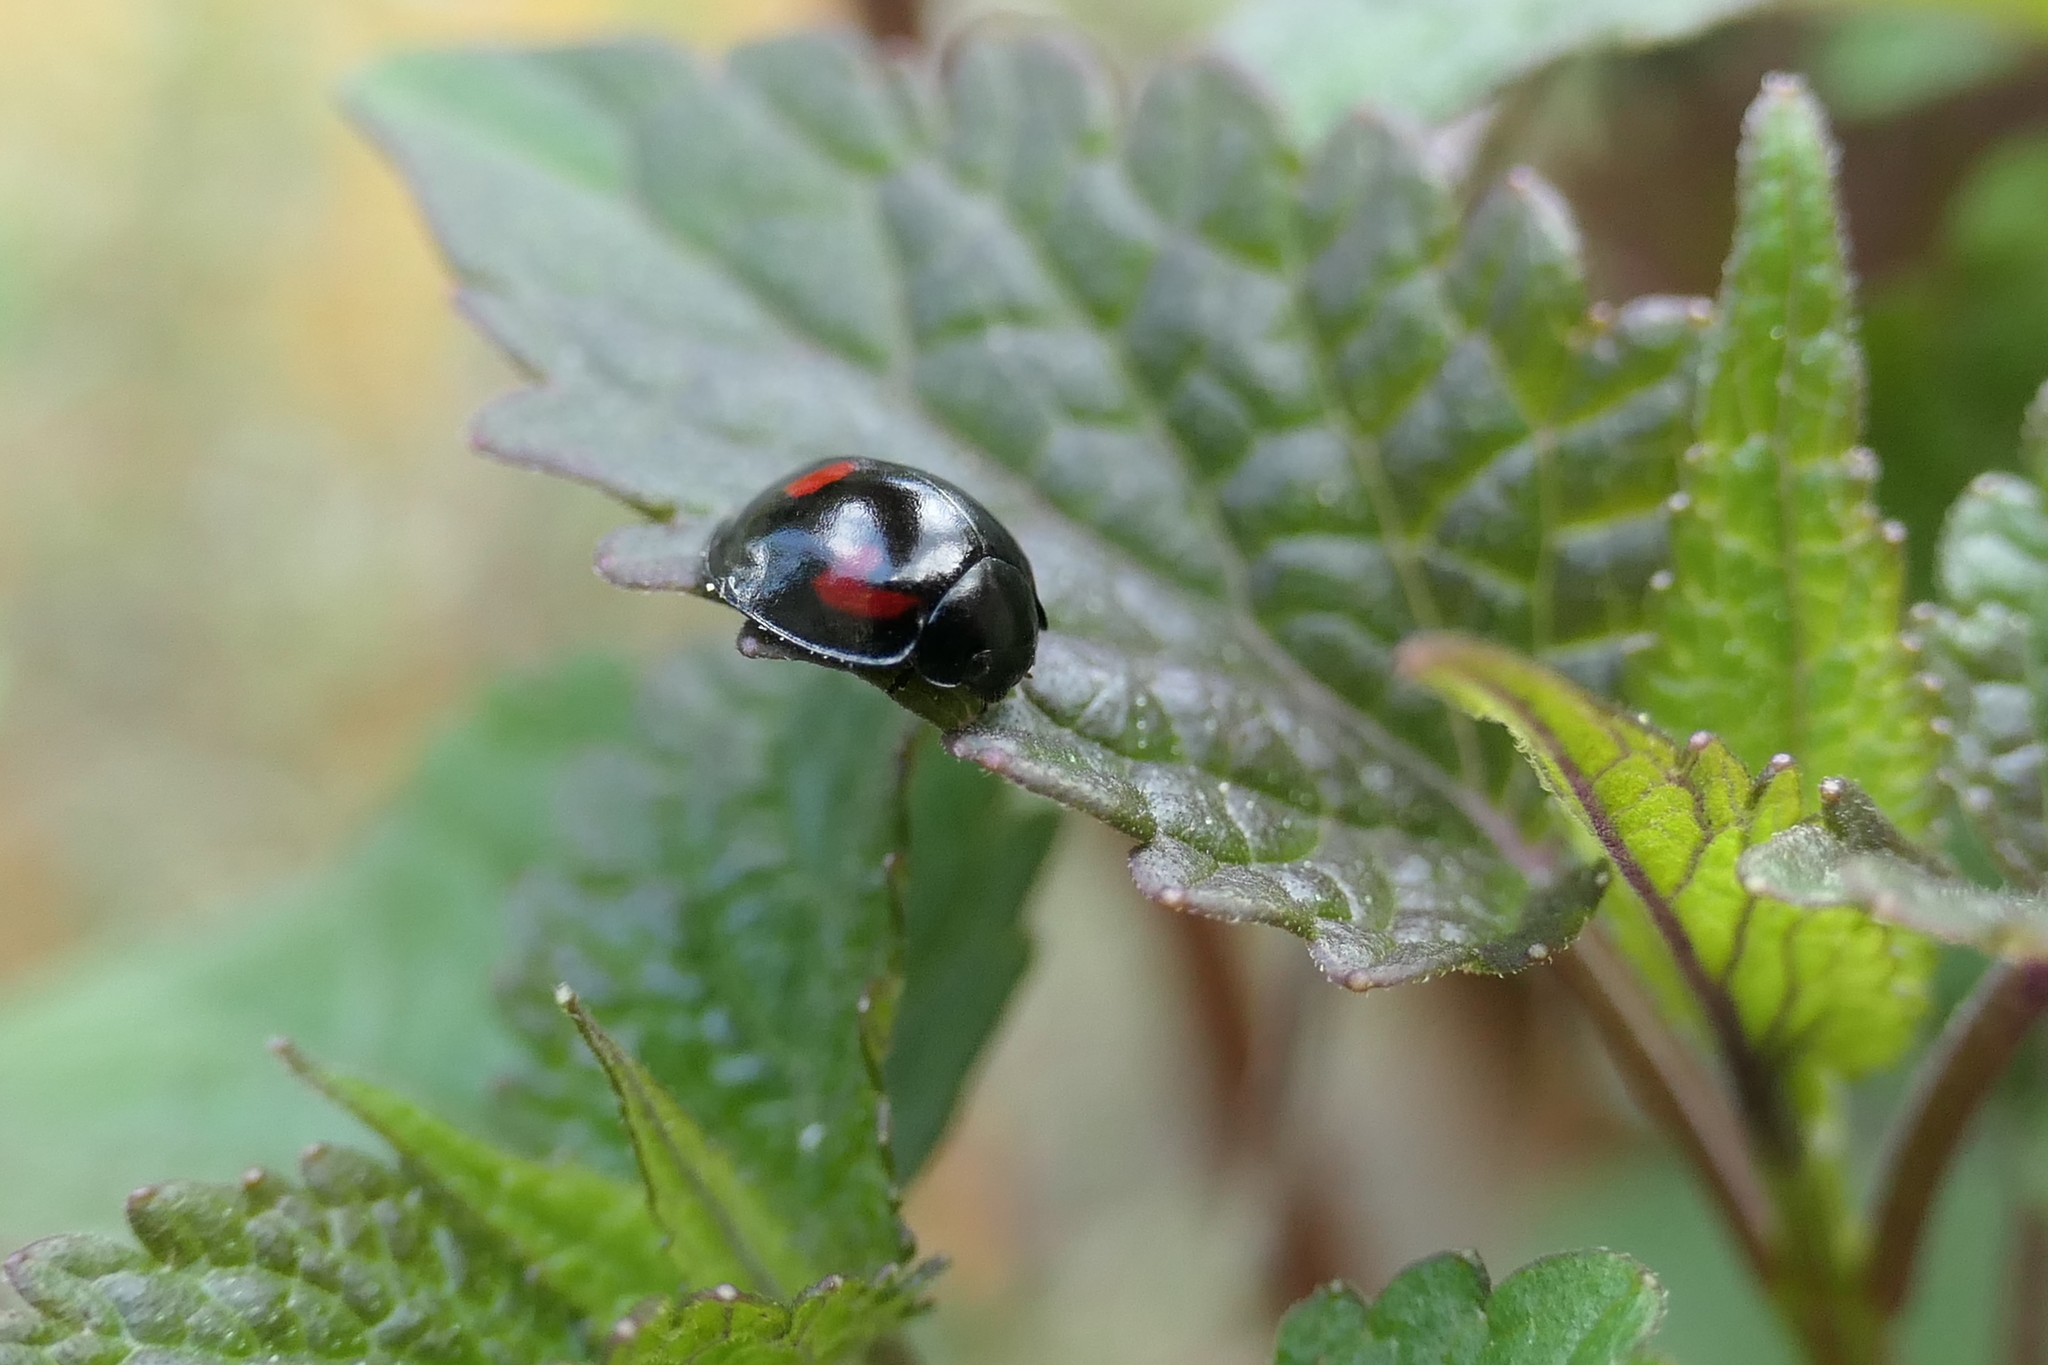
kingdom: Animalia
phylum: Arthropoda
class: Insecta
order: Coleoptera
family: Coccinellidae
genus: Brumus
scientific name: Brumus quadripustulatus
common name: Ladybird beetle
